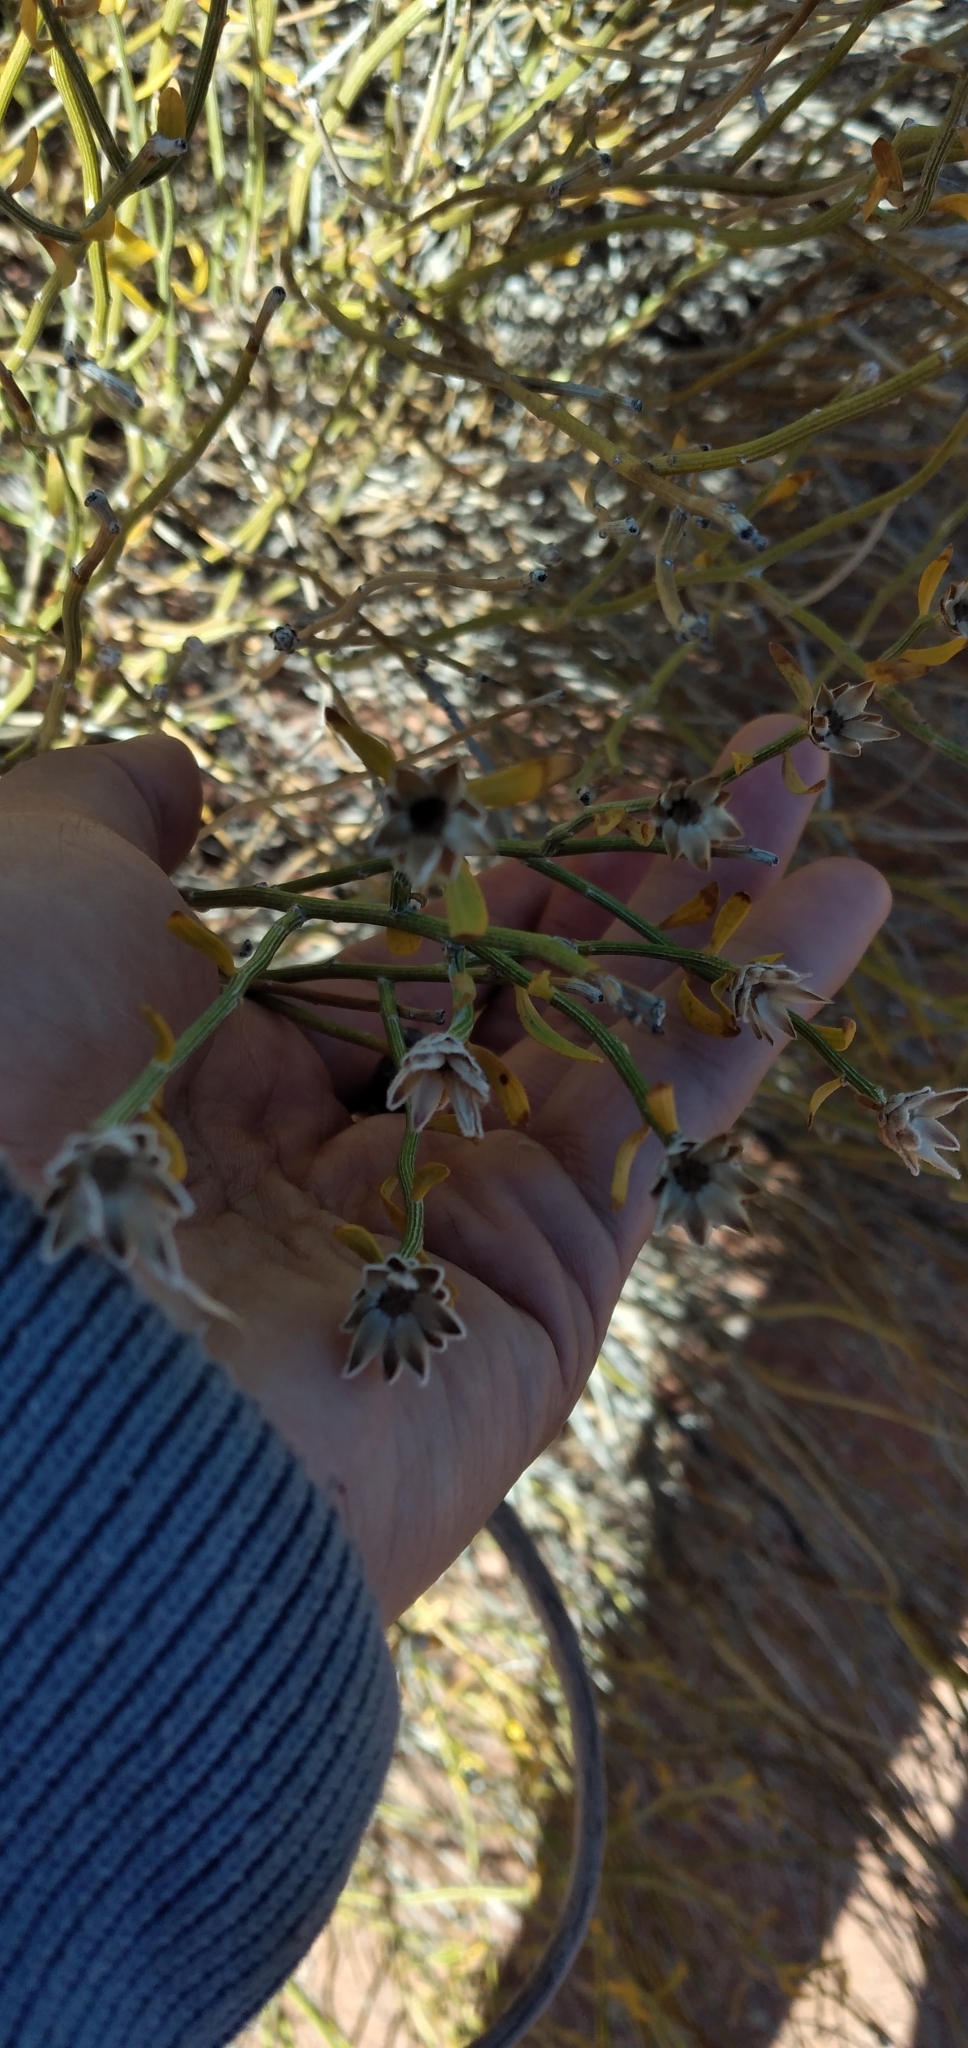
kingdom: Plantae
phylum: Tracheophyta
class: Magnoliopsida
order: Asterales
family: Asteraceae
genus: Cyclolepis
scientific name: Cyclolepis genistoides
